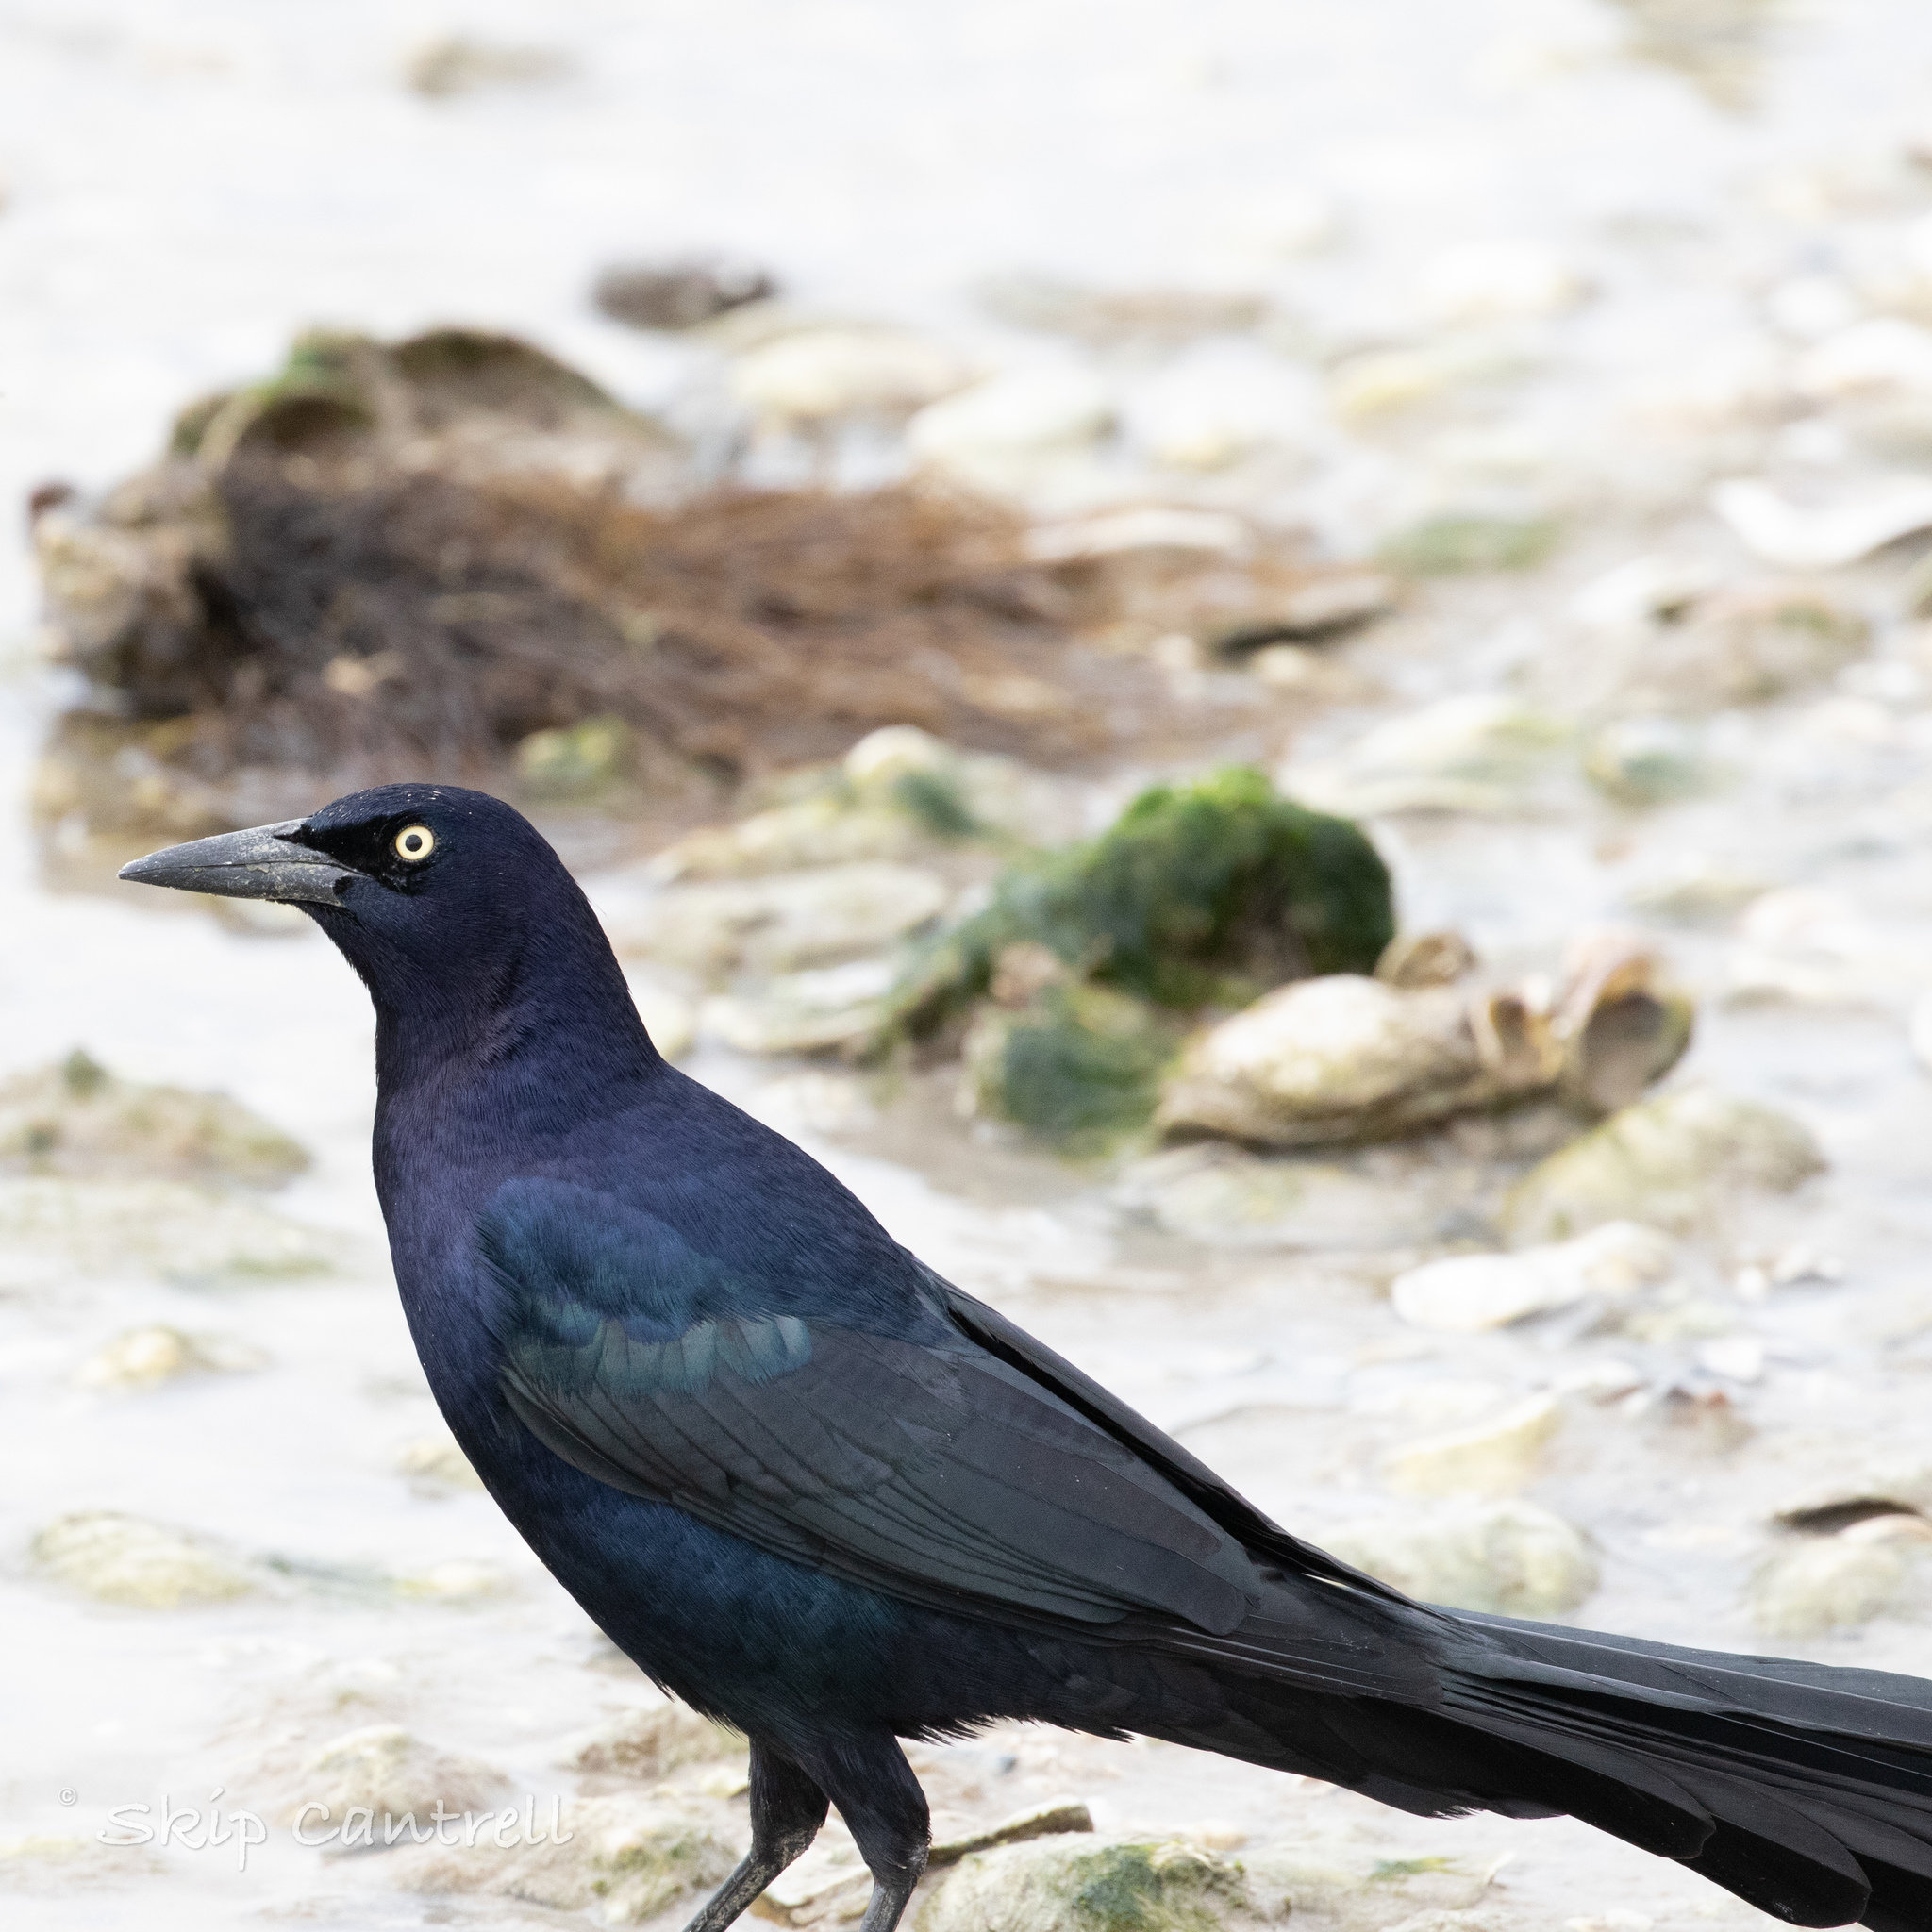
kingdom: Animalia
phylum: Chordata
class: Aves
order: Passeriformes
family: Icteridae
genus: Quiscalus
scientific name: Quiscalus mexicanus
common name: Great-tailed grackle
